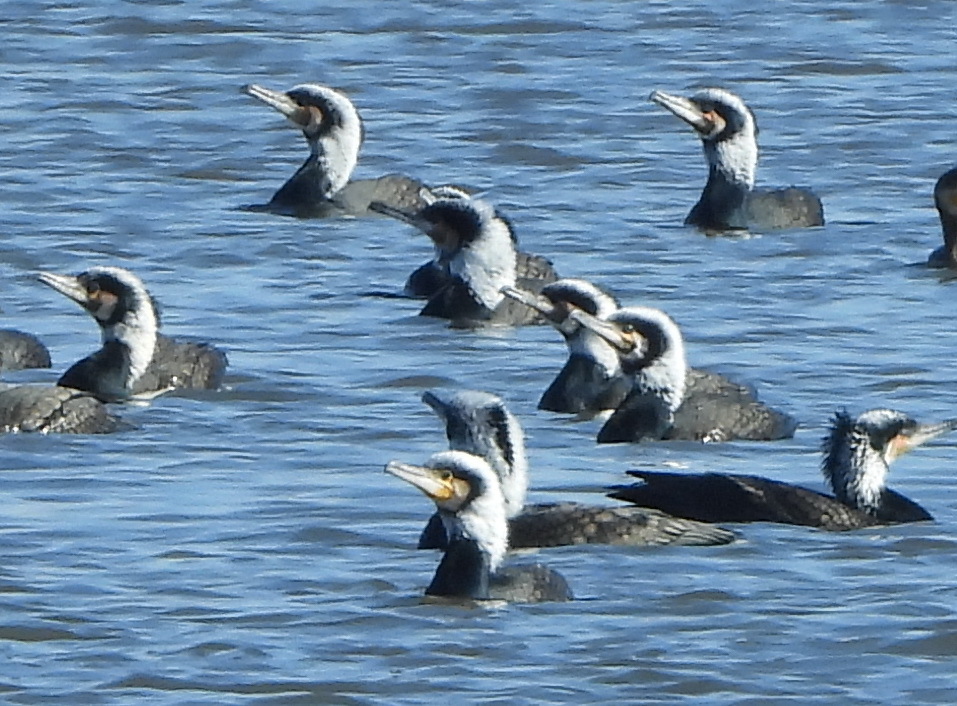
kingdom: Animalia
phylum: Chordata
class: Aves
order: Suliformes
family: Phalacrocoracidae
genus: Phalacrocorax
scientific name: Phalacrocorax capillatus
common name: Japanese cormorant
